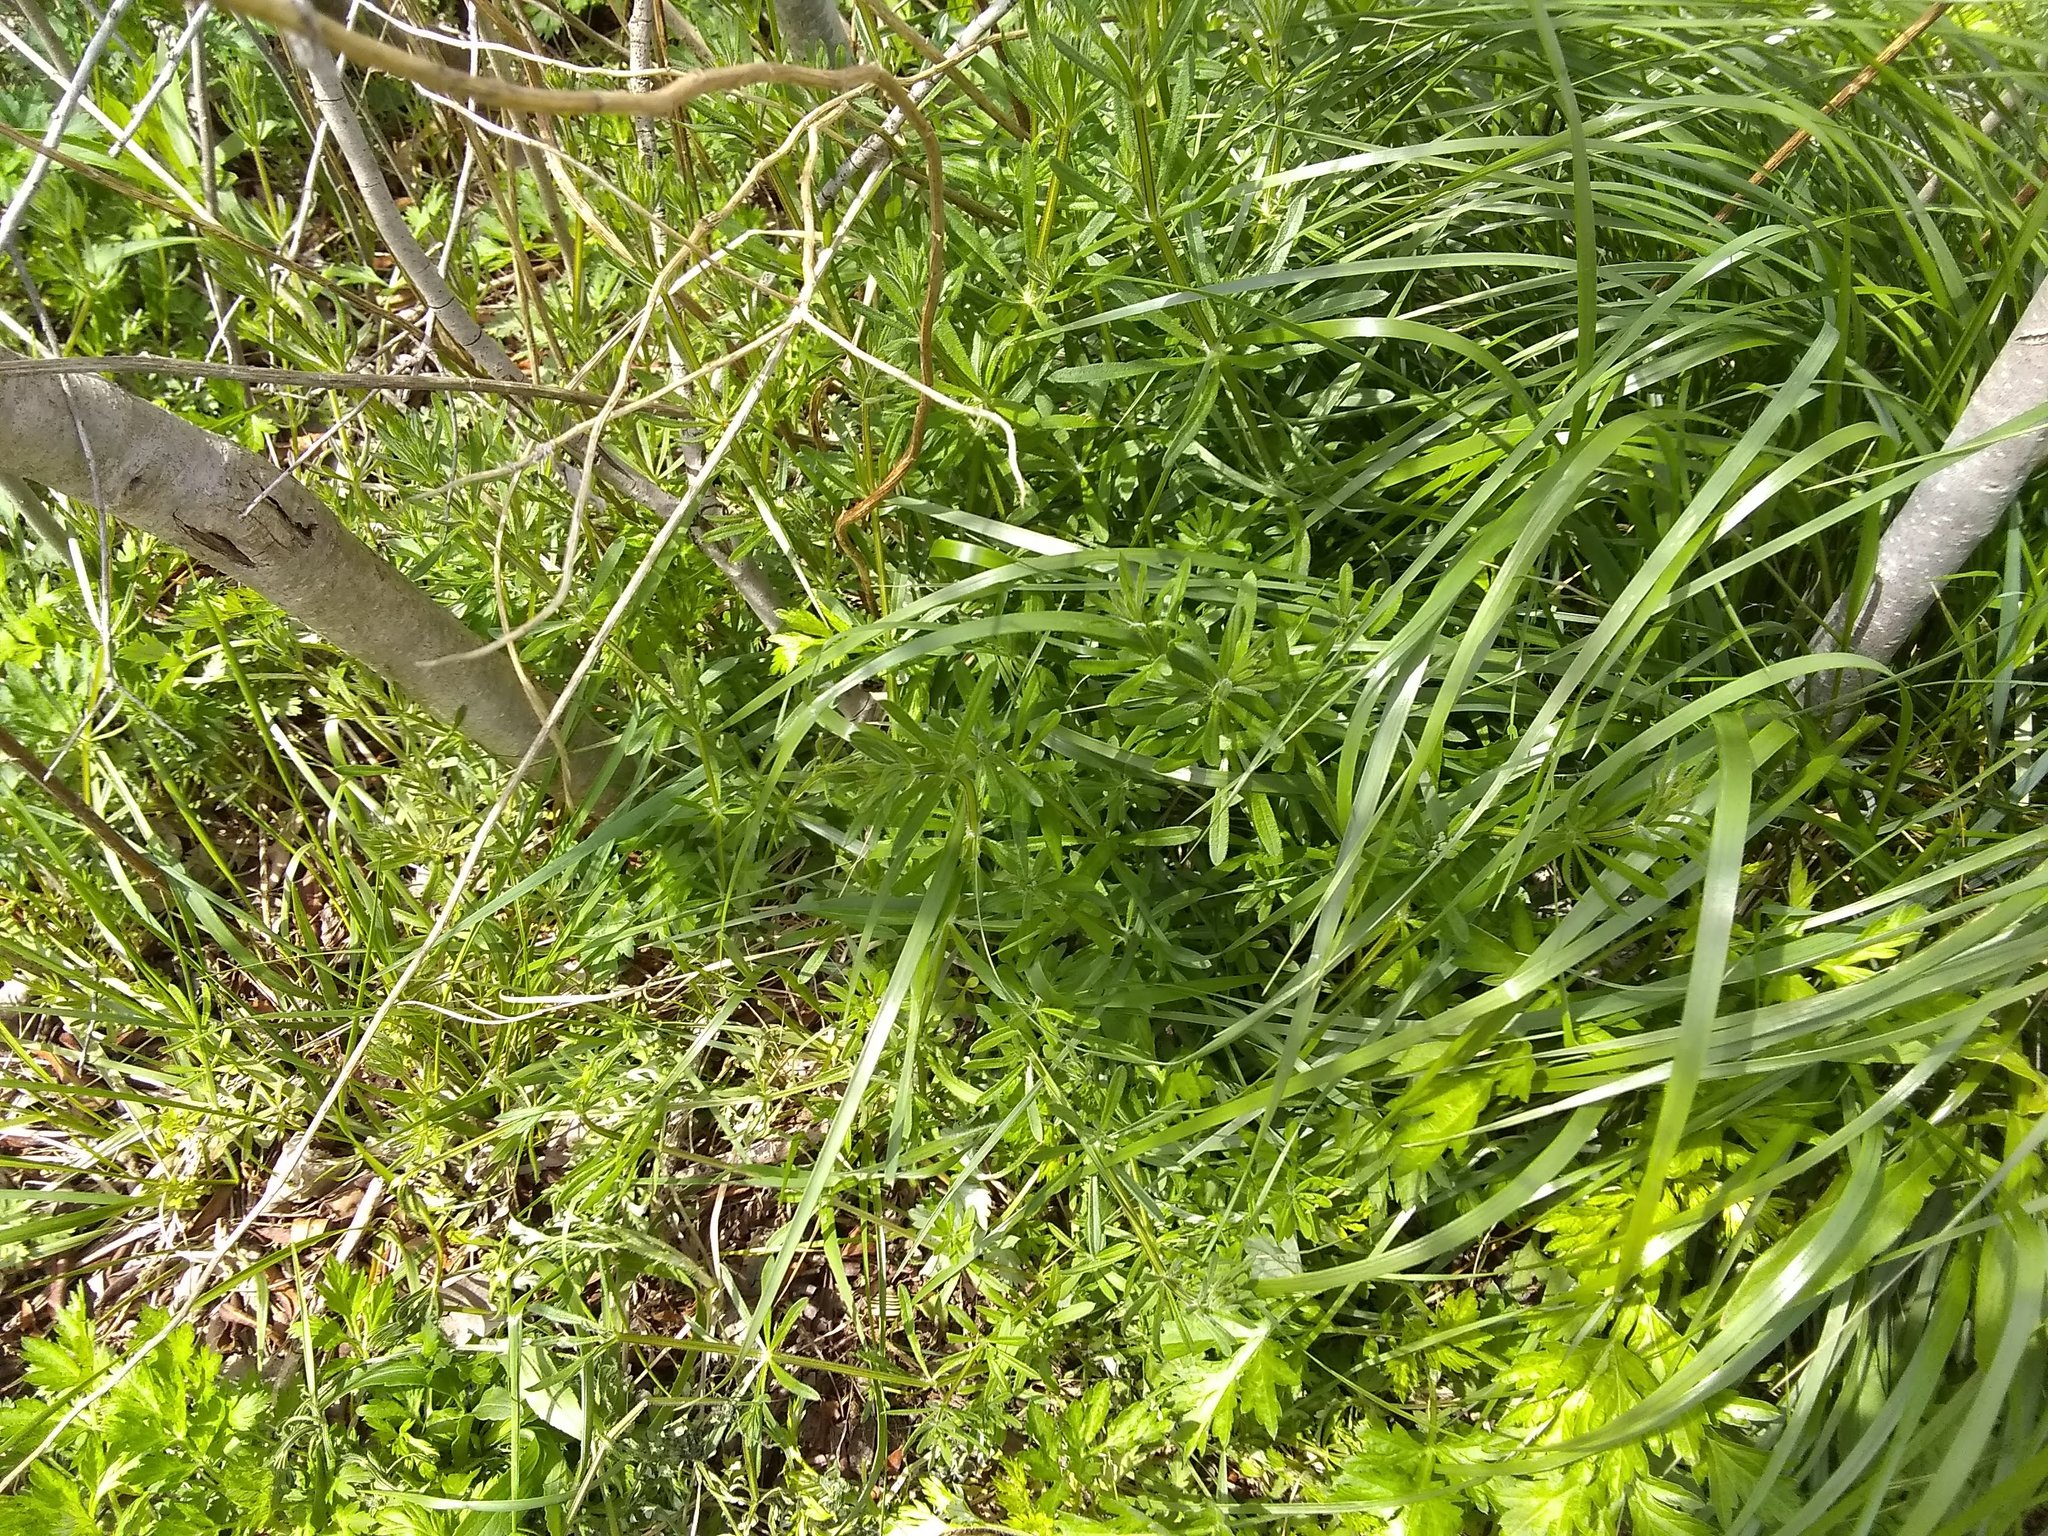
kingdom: Plantae
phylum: Tracheophyta
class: Magnoliopsida
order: Gentianales
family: Rubiaceae
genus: Galium
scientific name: Galium aparine
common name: Cleavers
